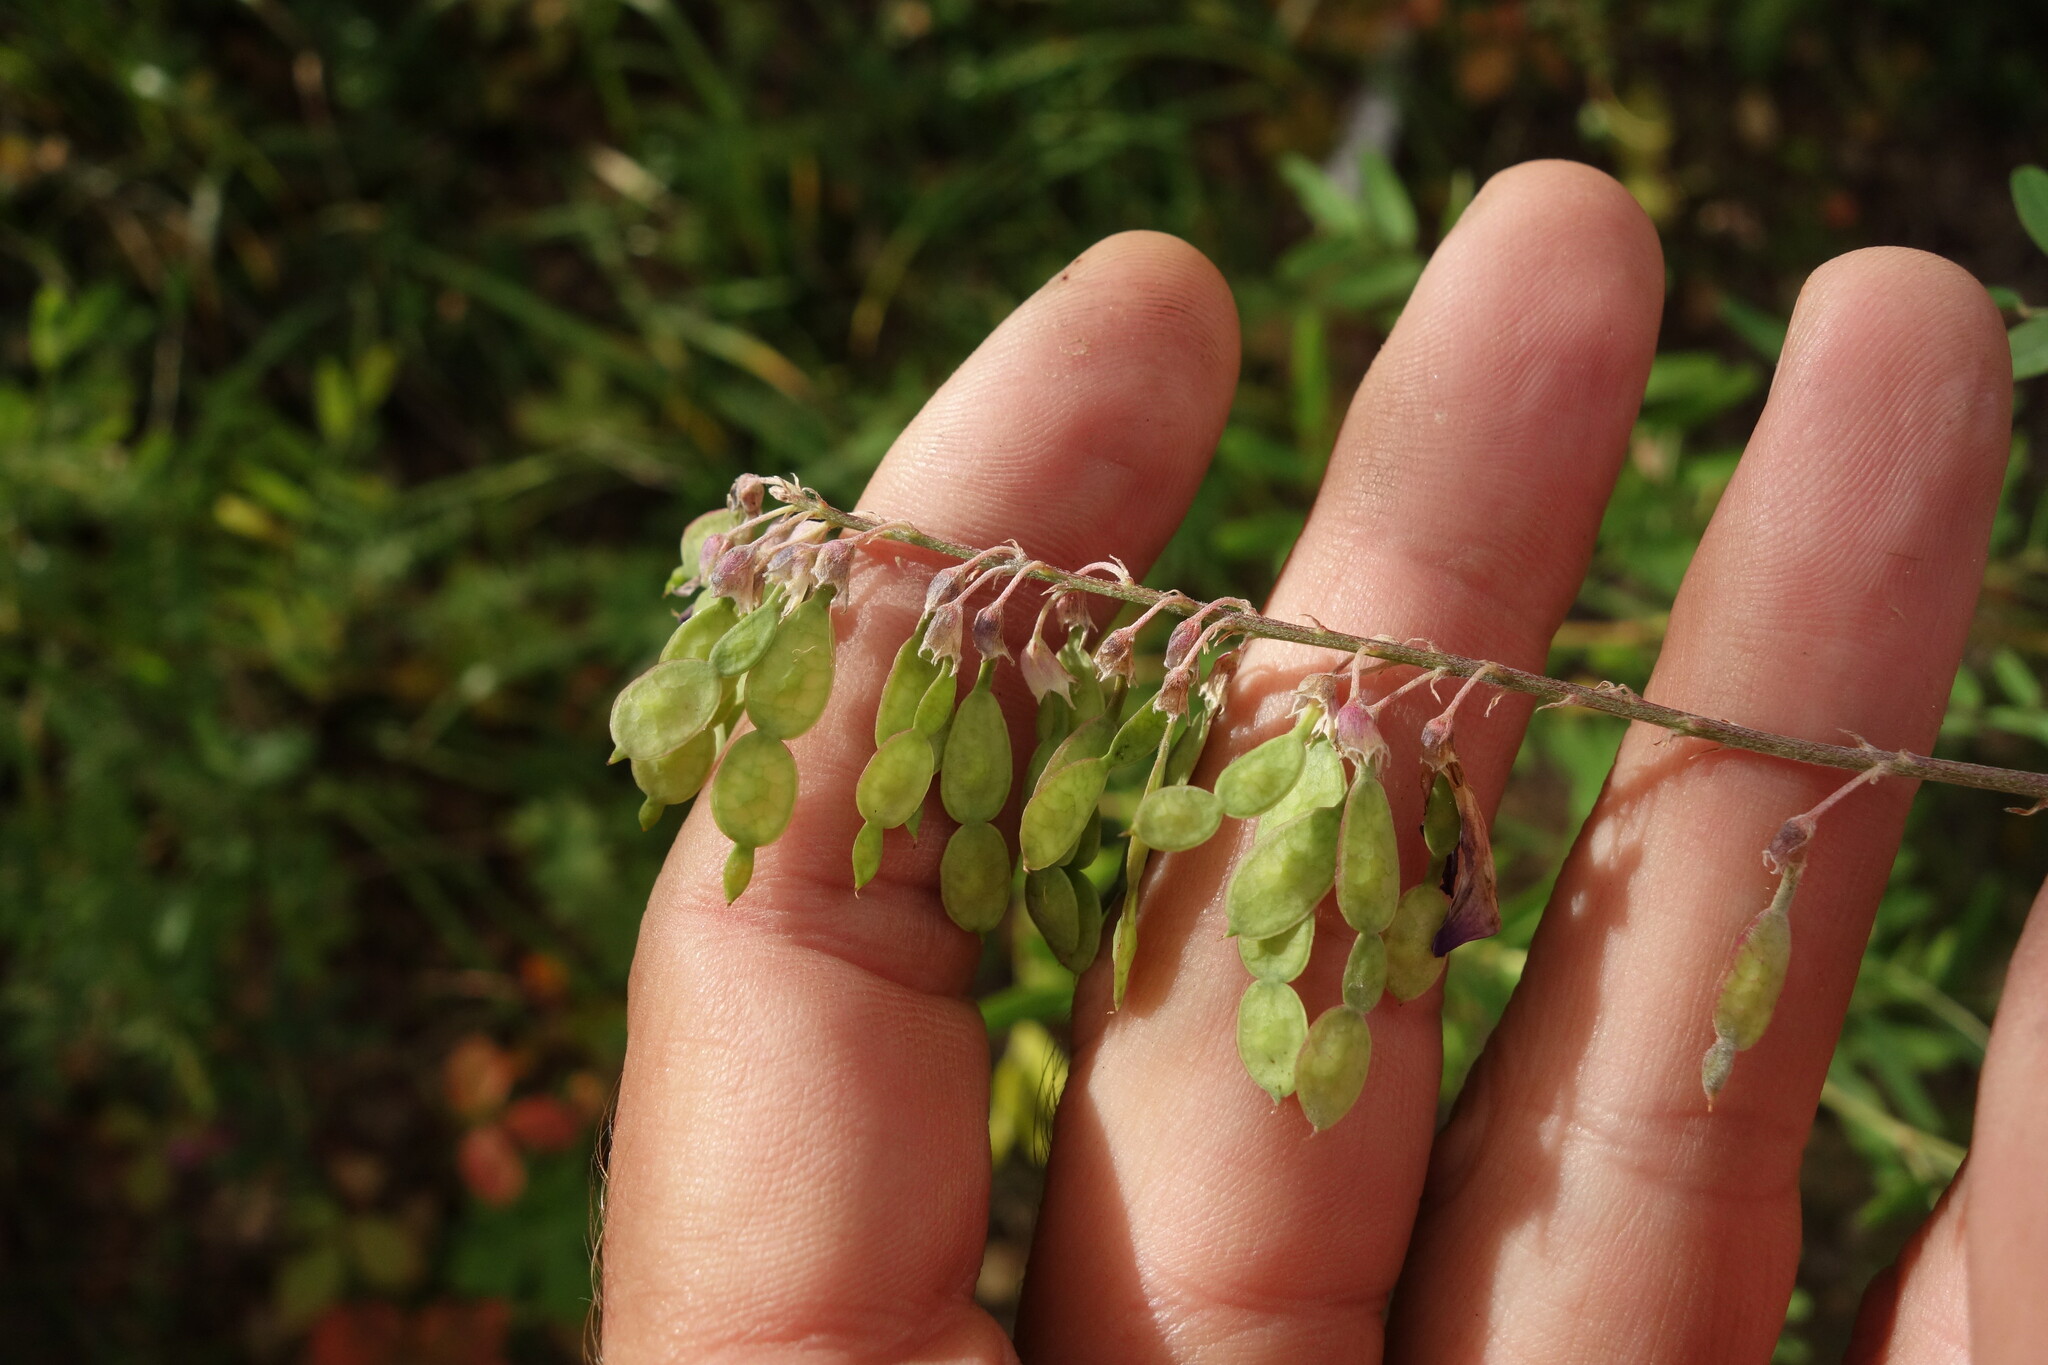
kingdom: Plantae
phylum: Tracheophyta
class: Magnoliopsida
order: Fabales
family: Fabaceae
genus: Hedysarum
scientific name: Hedysarum alpinum
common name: Alpine sweet-vetch
